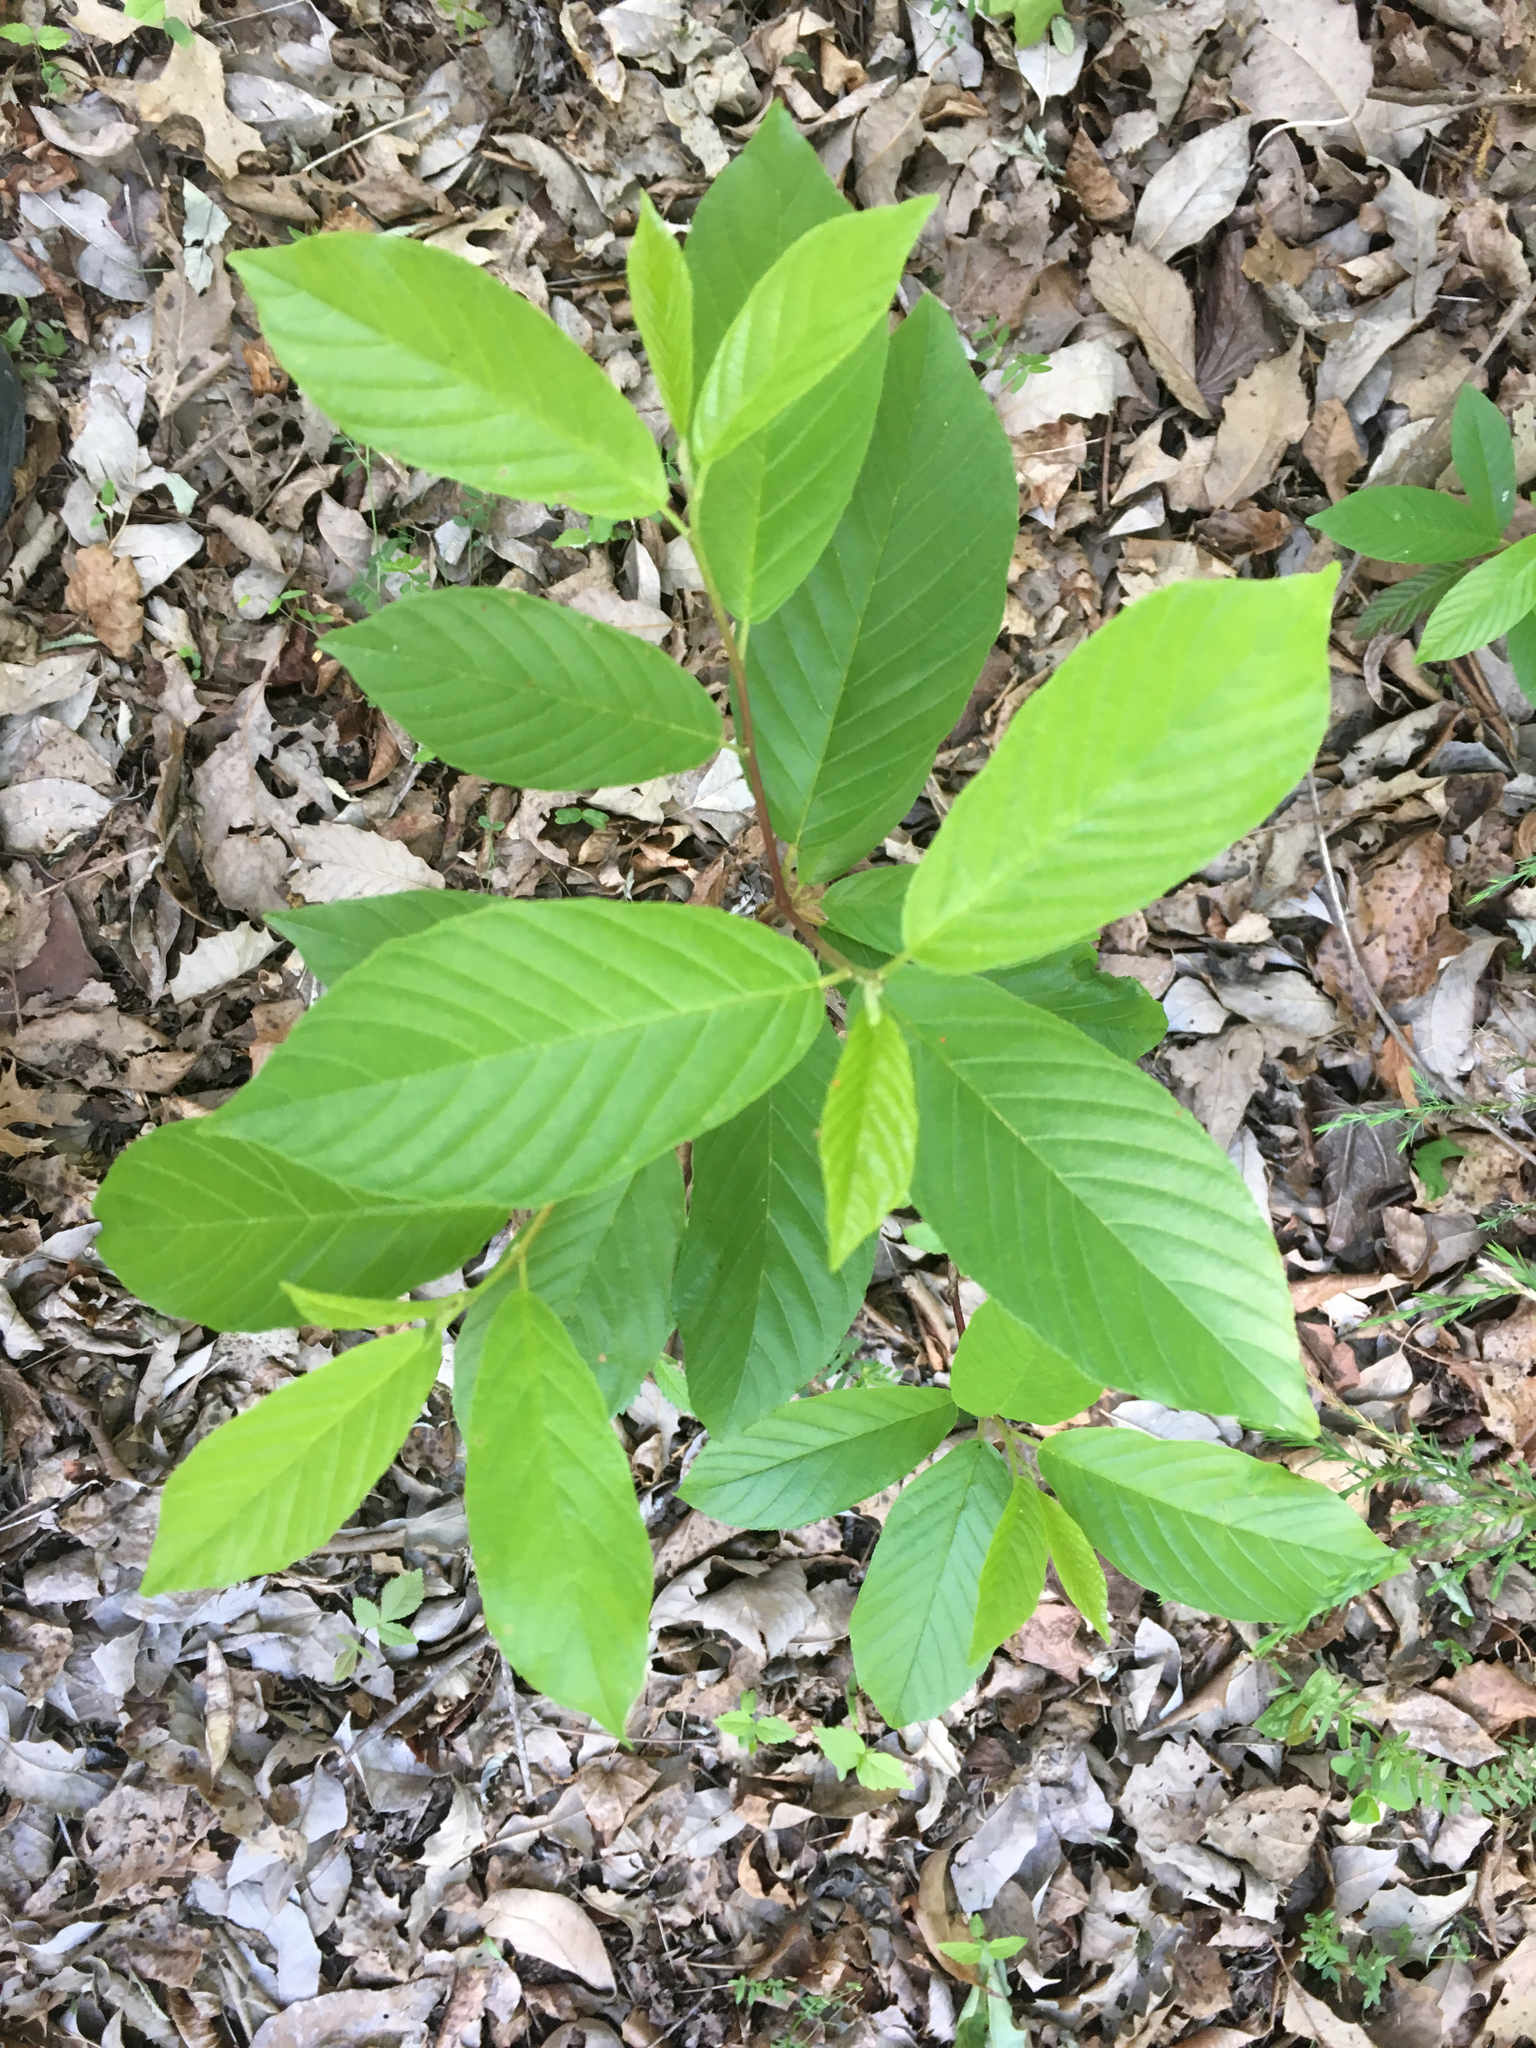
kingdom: Plantae
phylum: Tracheophyta
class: Magnoliopsida
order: Rosales
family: Rhamnaceae
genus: Frangula
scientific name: Frangula caroliniana
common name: Carolina buckthorn
